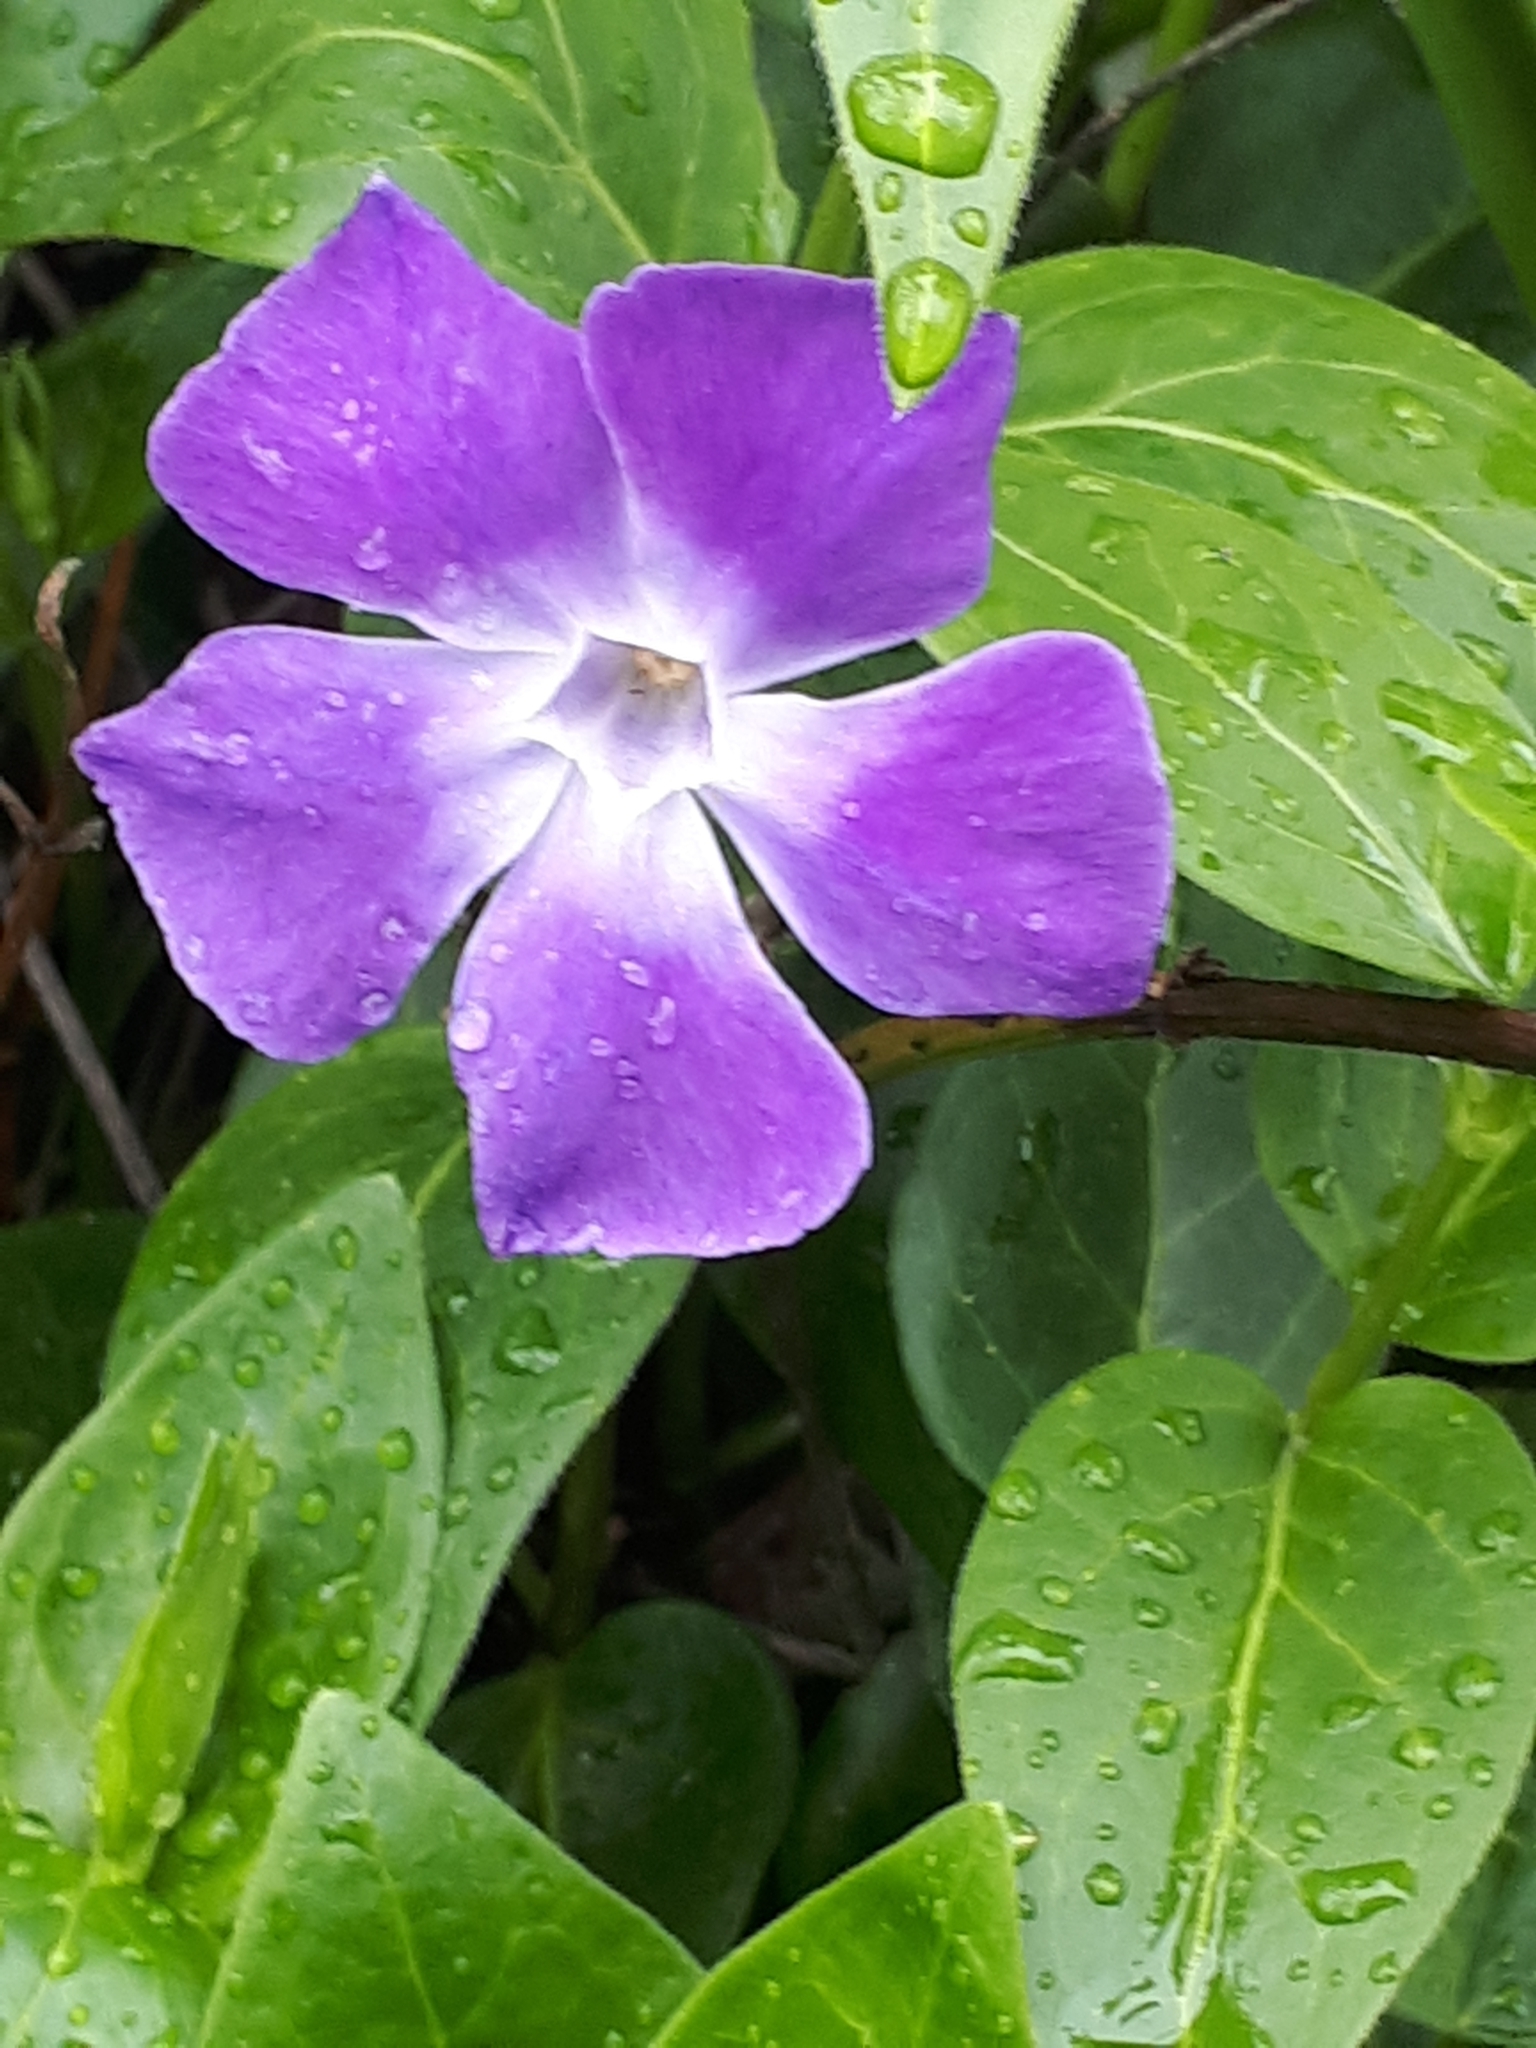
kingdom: Plantae
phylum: Tracheophyta
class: Magnoliopsida
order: Gentianales
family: Apocynaceae
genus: Vinca
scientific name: Vinca major
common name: Greater periwinkle
